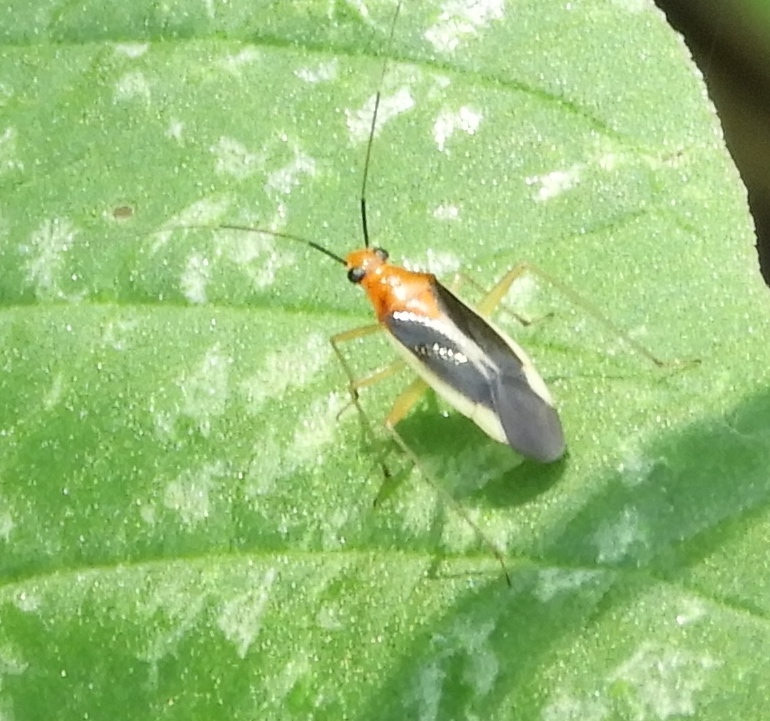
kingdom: Animalia
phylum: Arthropoda
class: Insecta
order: Hemiptera
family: Miridae
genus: Ganocapsus
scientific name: Ganocapsus filiformis
